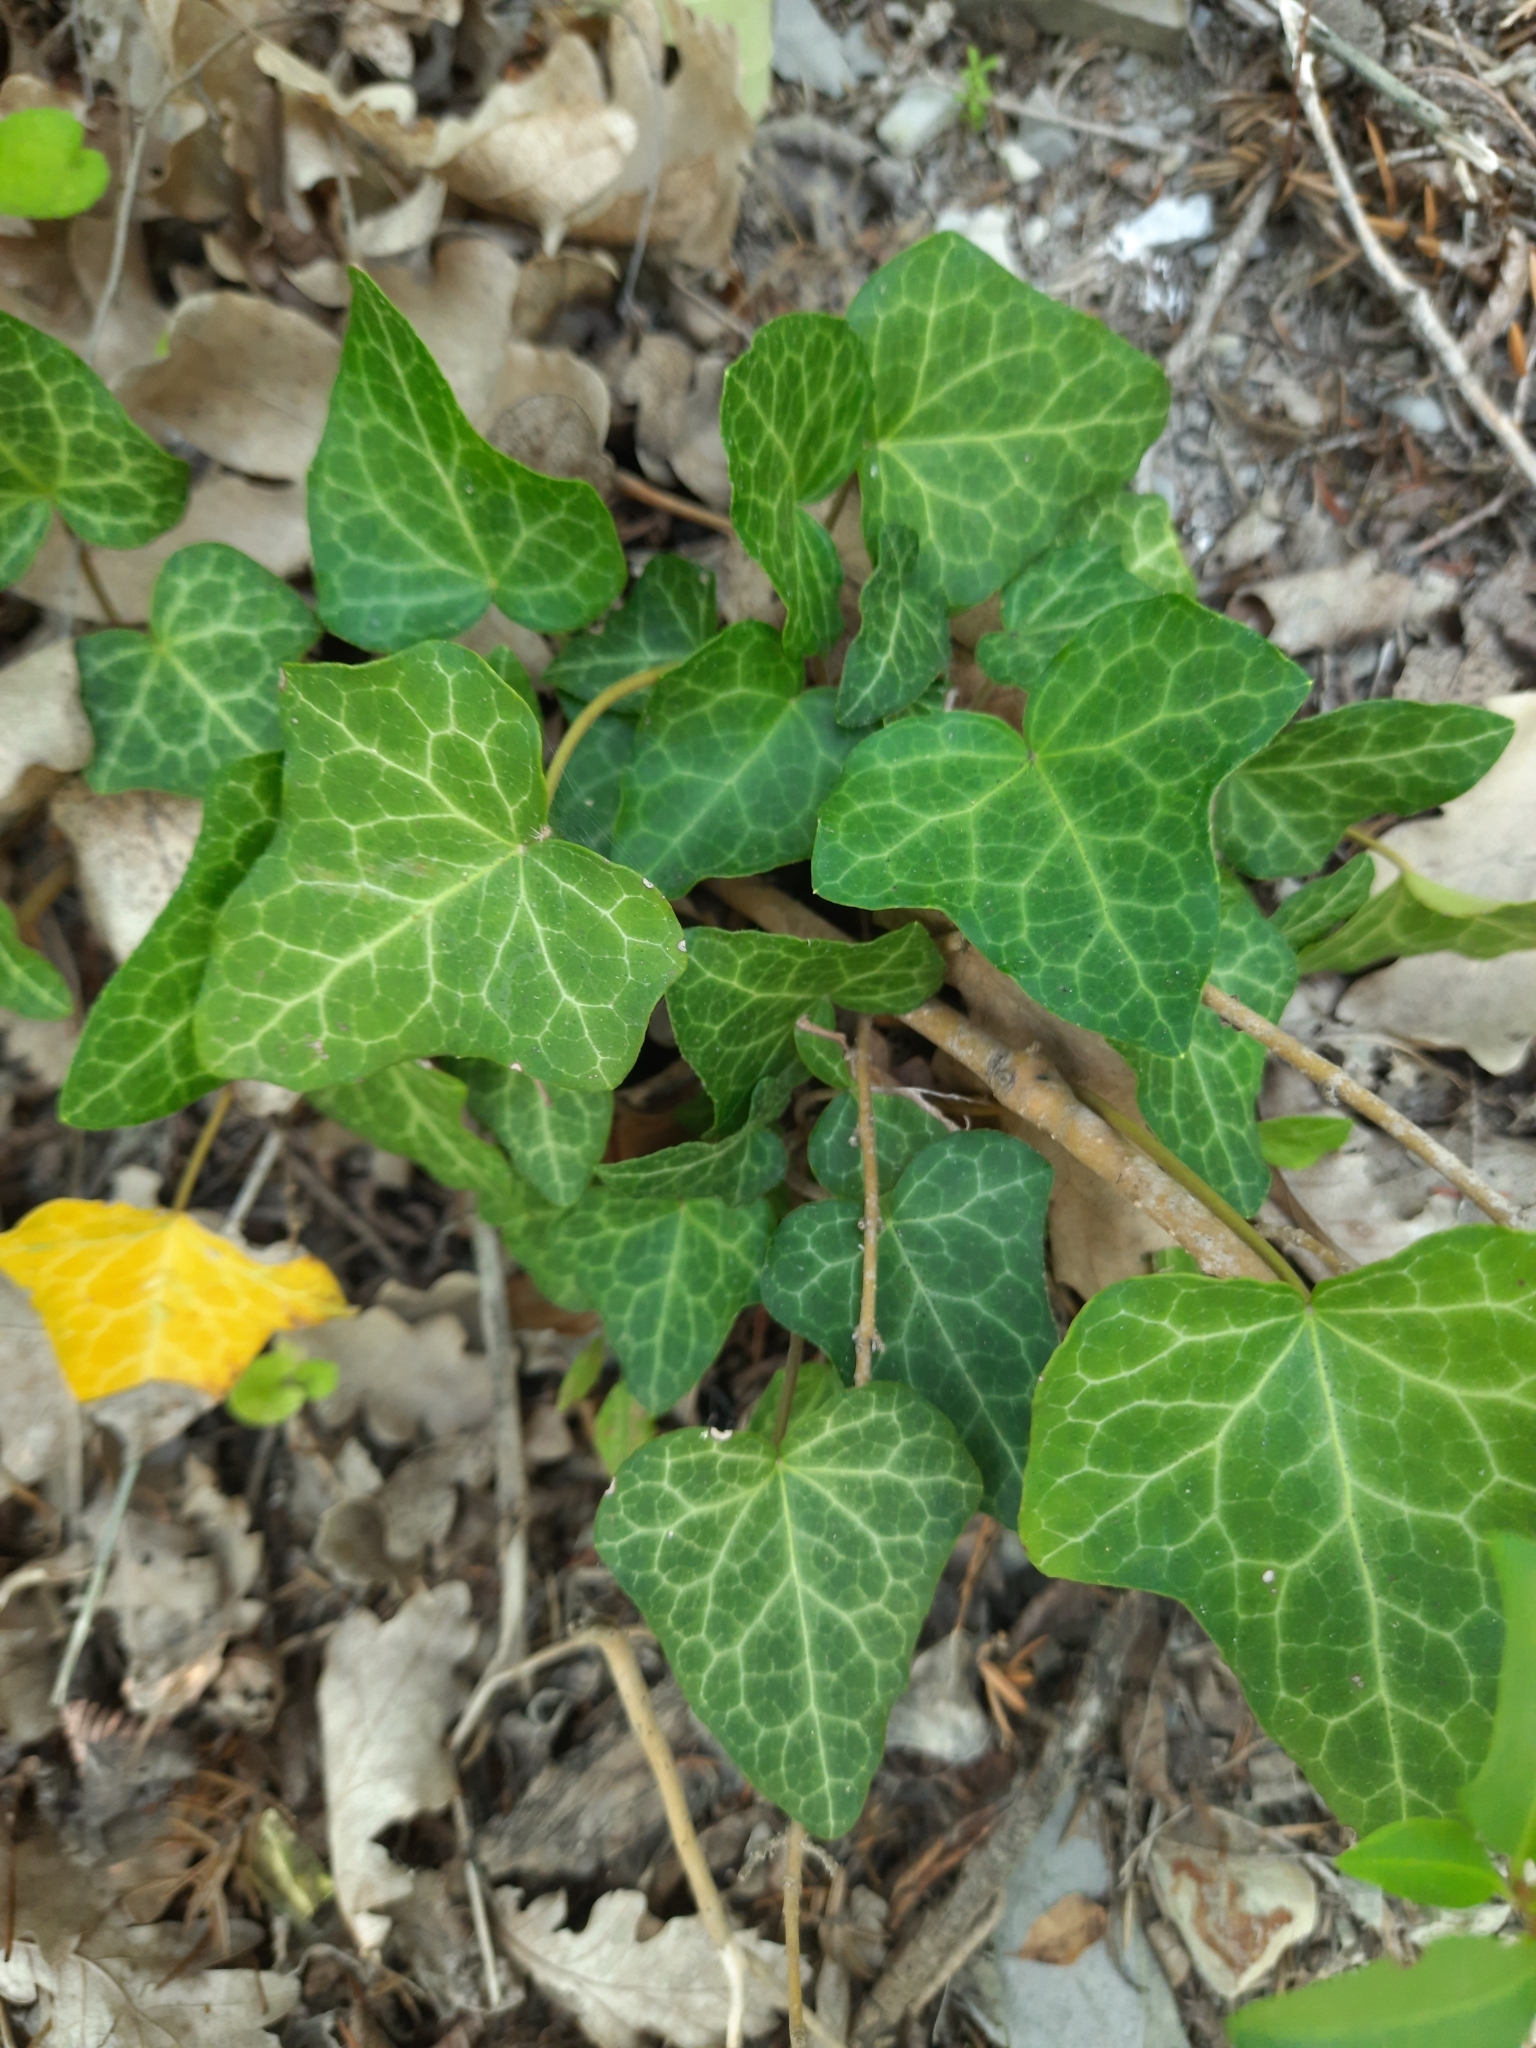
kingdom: Plantae
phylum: Tracheophyta
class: Magnoliopsida
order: Apiales
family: Araliaceae
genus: Hedera
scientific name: Hedera helix
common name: Ivy
